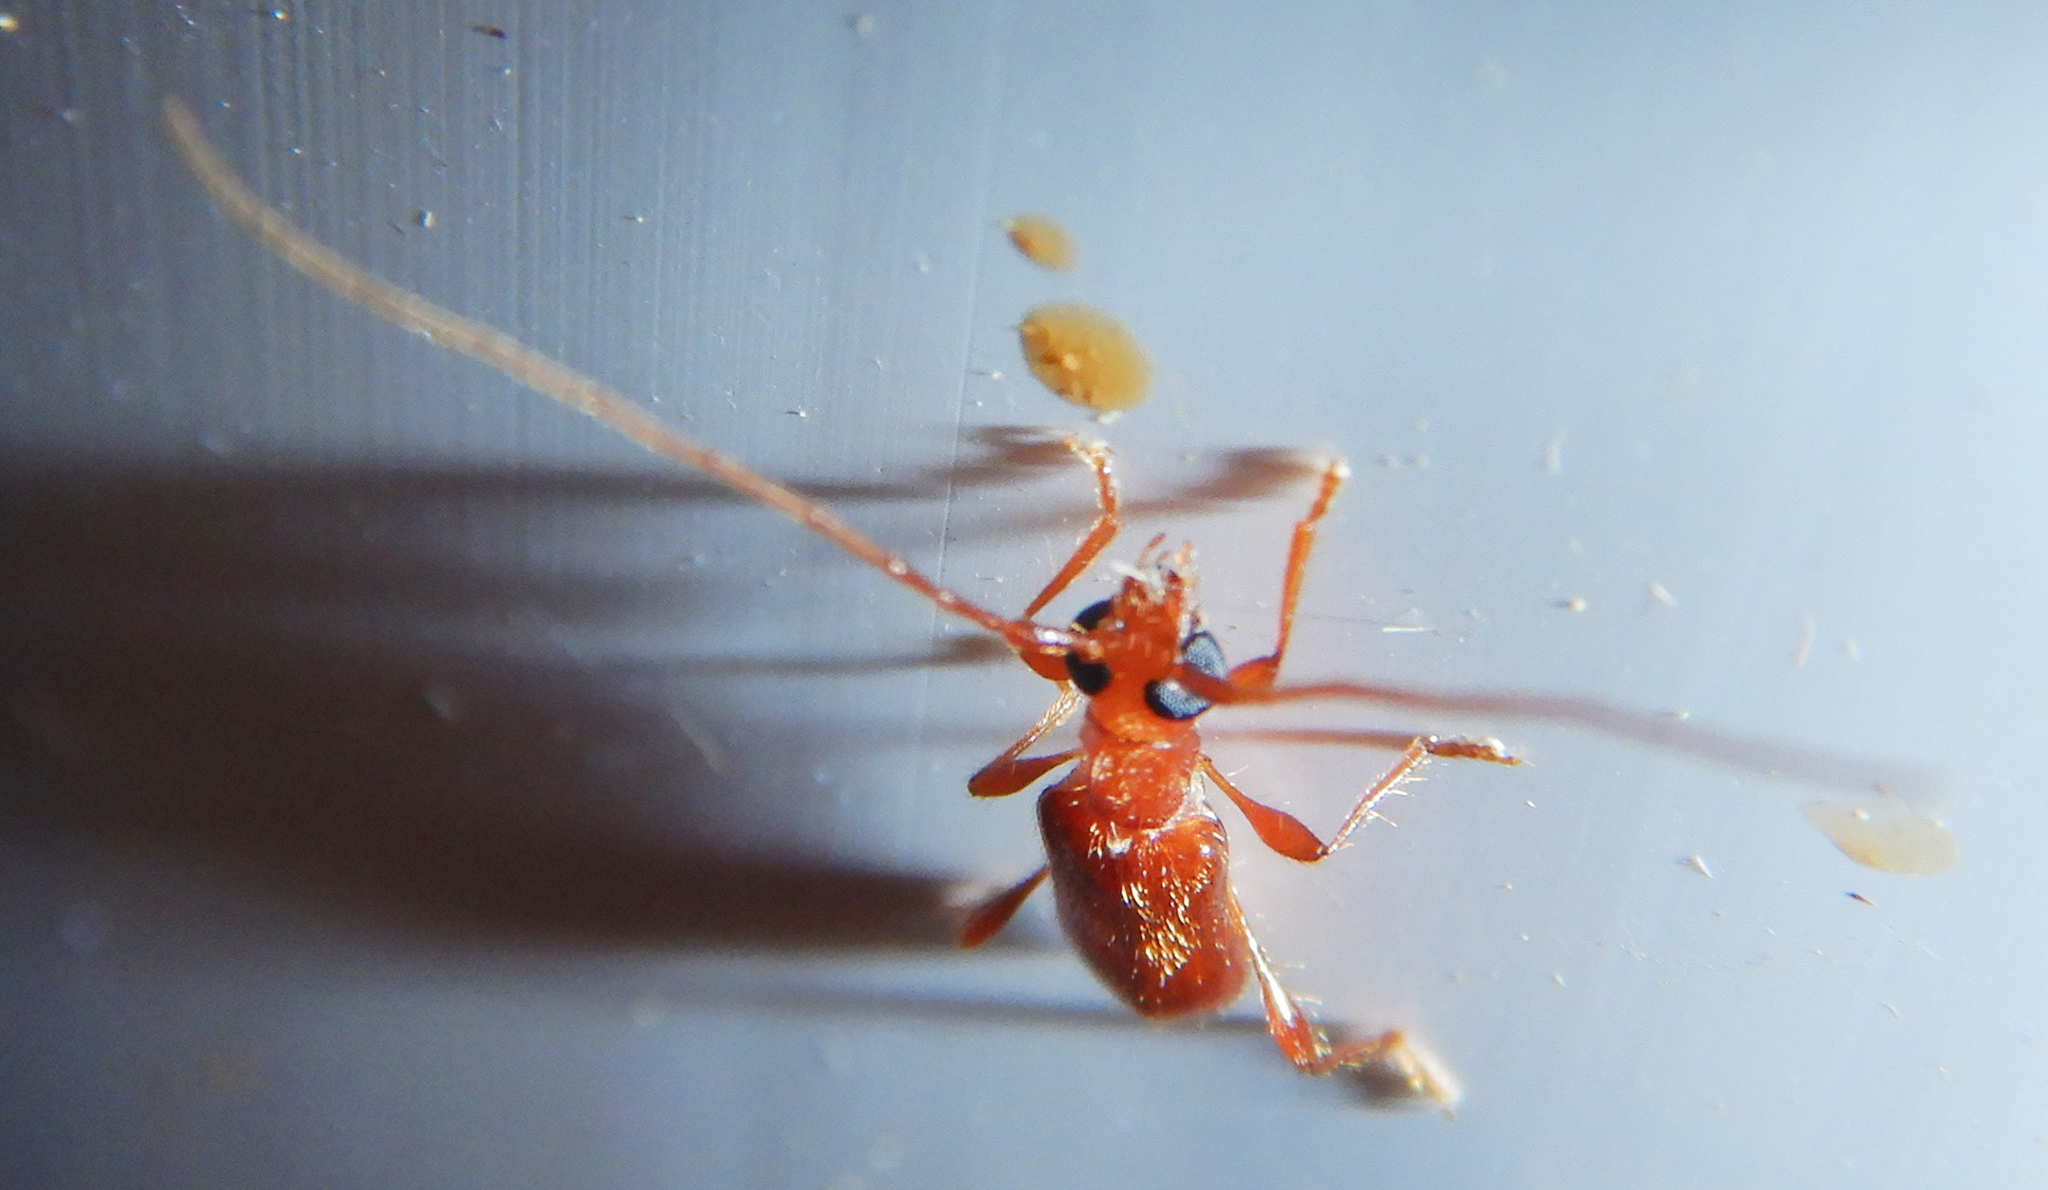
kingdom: Animalia
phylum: Arthropoda
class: Insecta
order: Coleoptera
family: Cerambycidae
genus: Obrium
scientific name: Obrium rufulum
